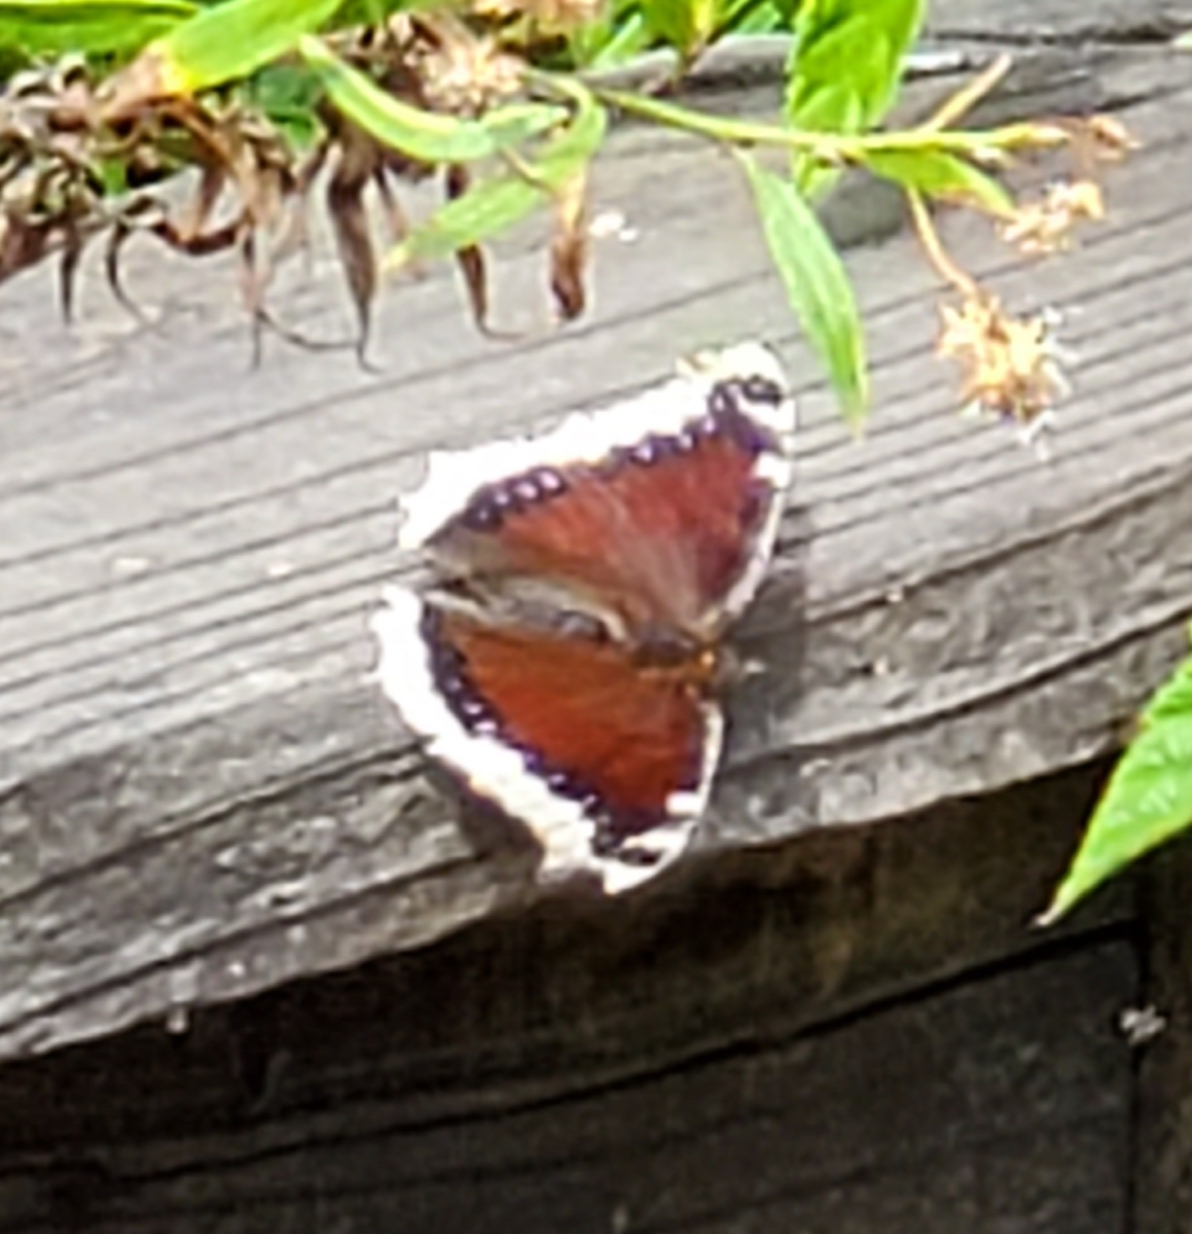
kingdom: Animalia
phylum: Arthropoda
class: Insecta
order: Lepidoptera
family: Nymphalidae
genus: Nymphalis
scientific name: Nymphalis antiopa
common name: Camberwell beauty
